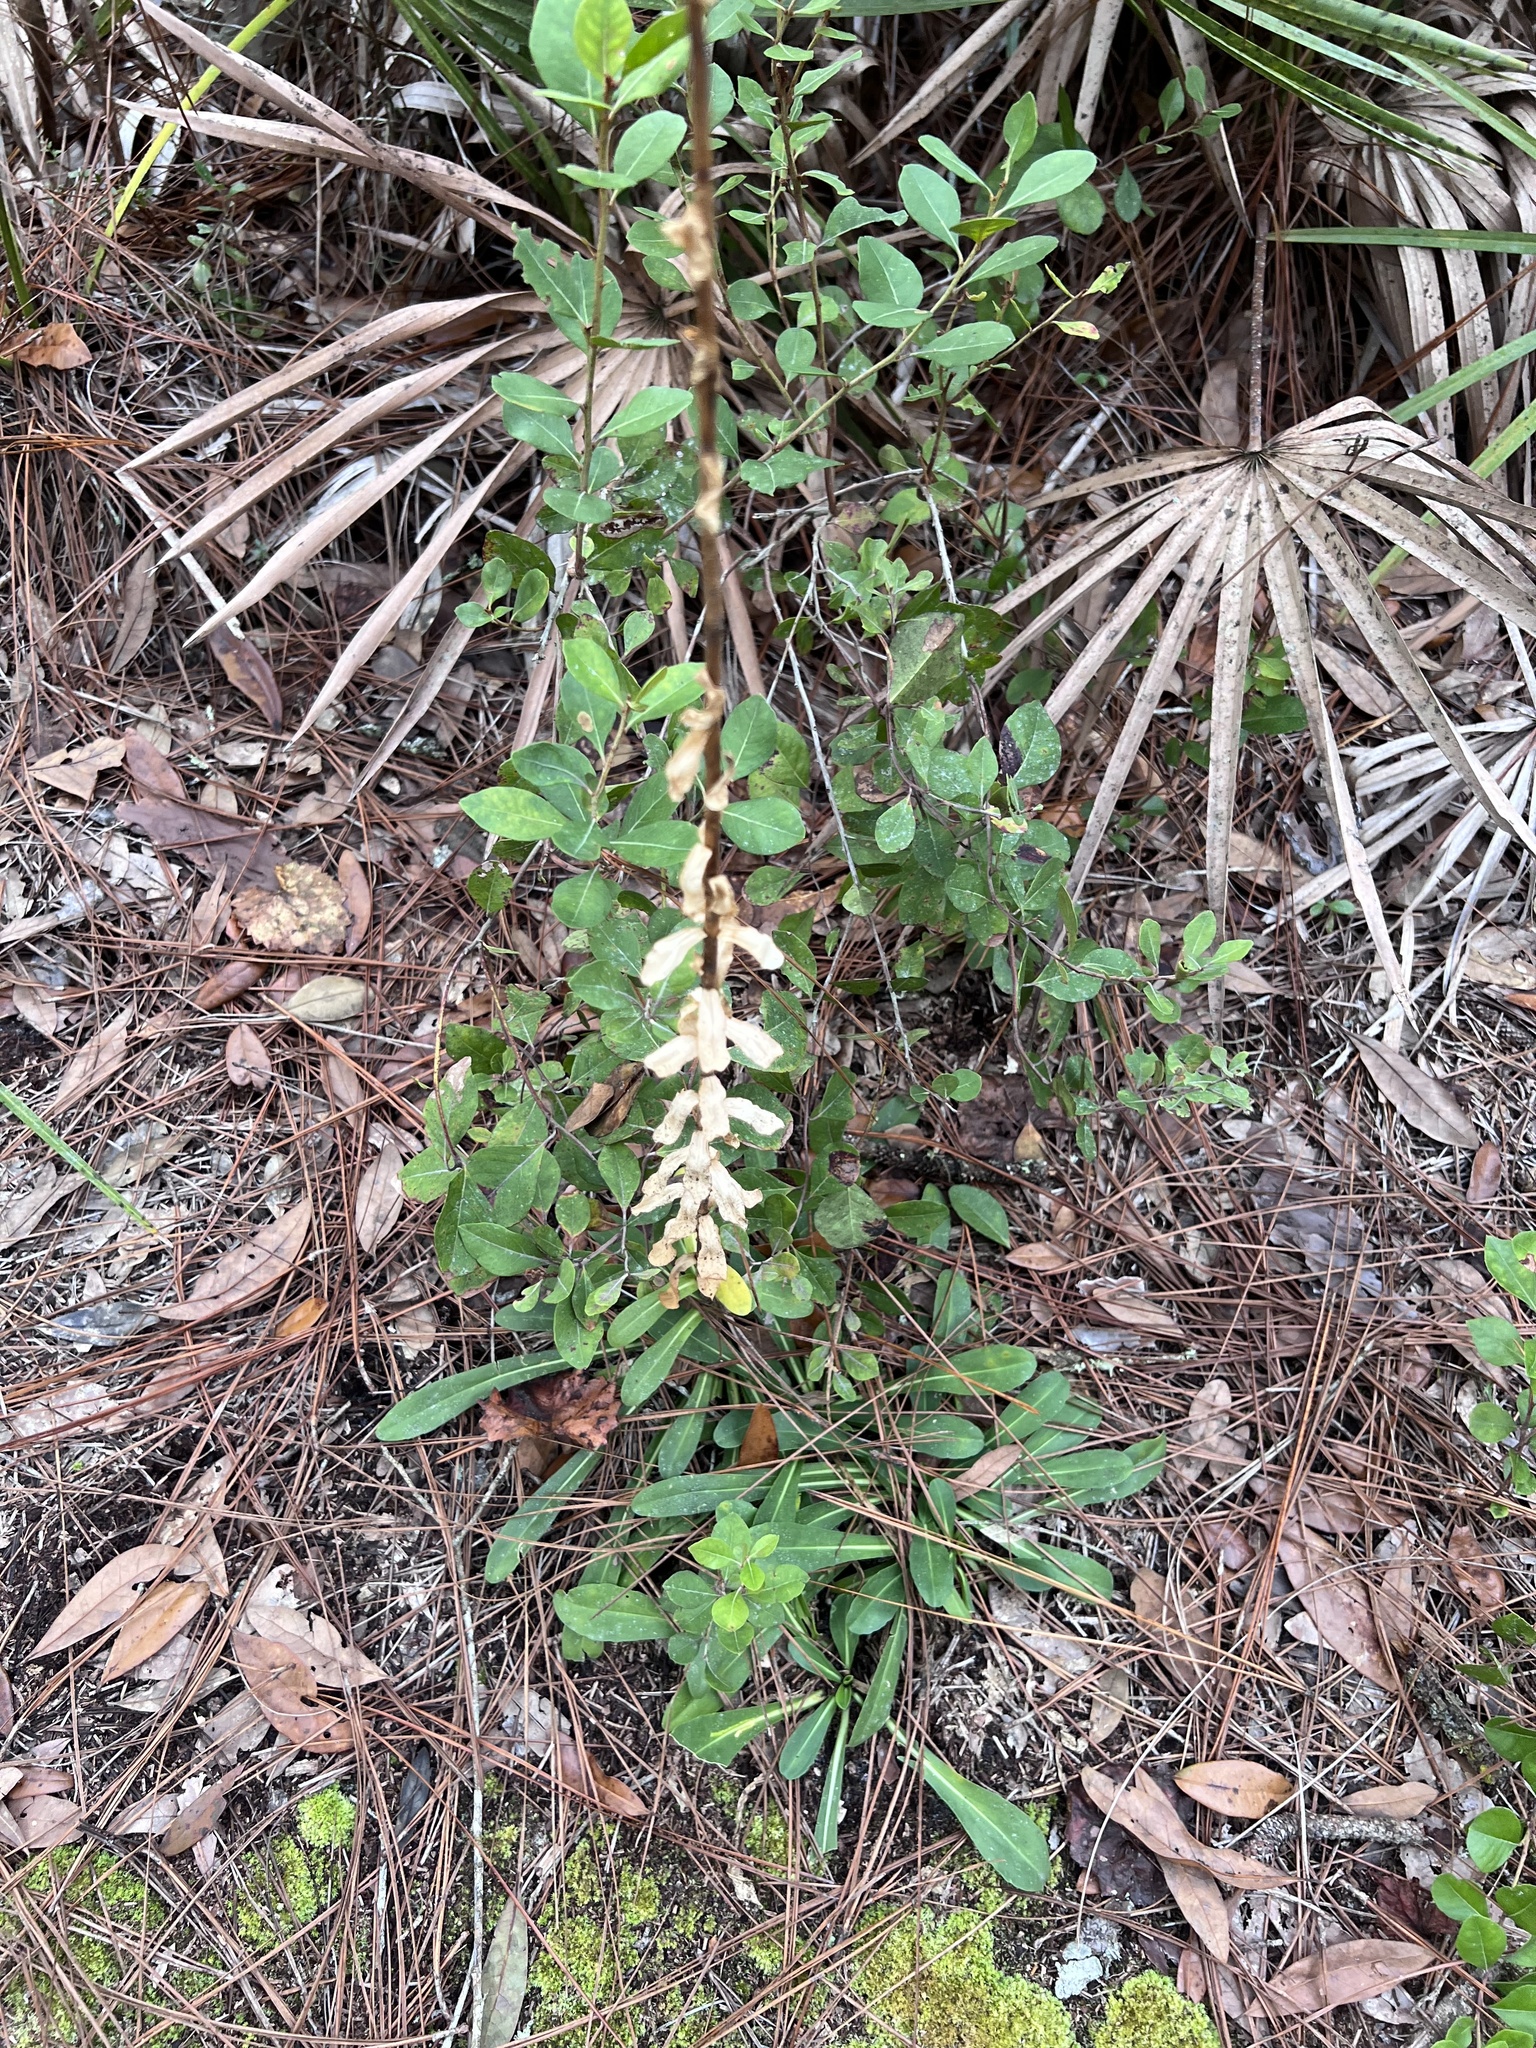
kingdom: Plantae
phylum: Tracheophyta
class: Magnoliopsida
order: Asterales
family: Asteraceae
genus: Carphephorus
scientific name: Carphephorus corymbosus
